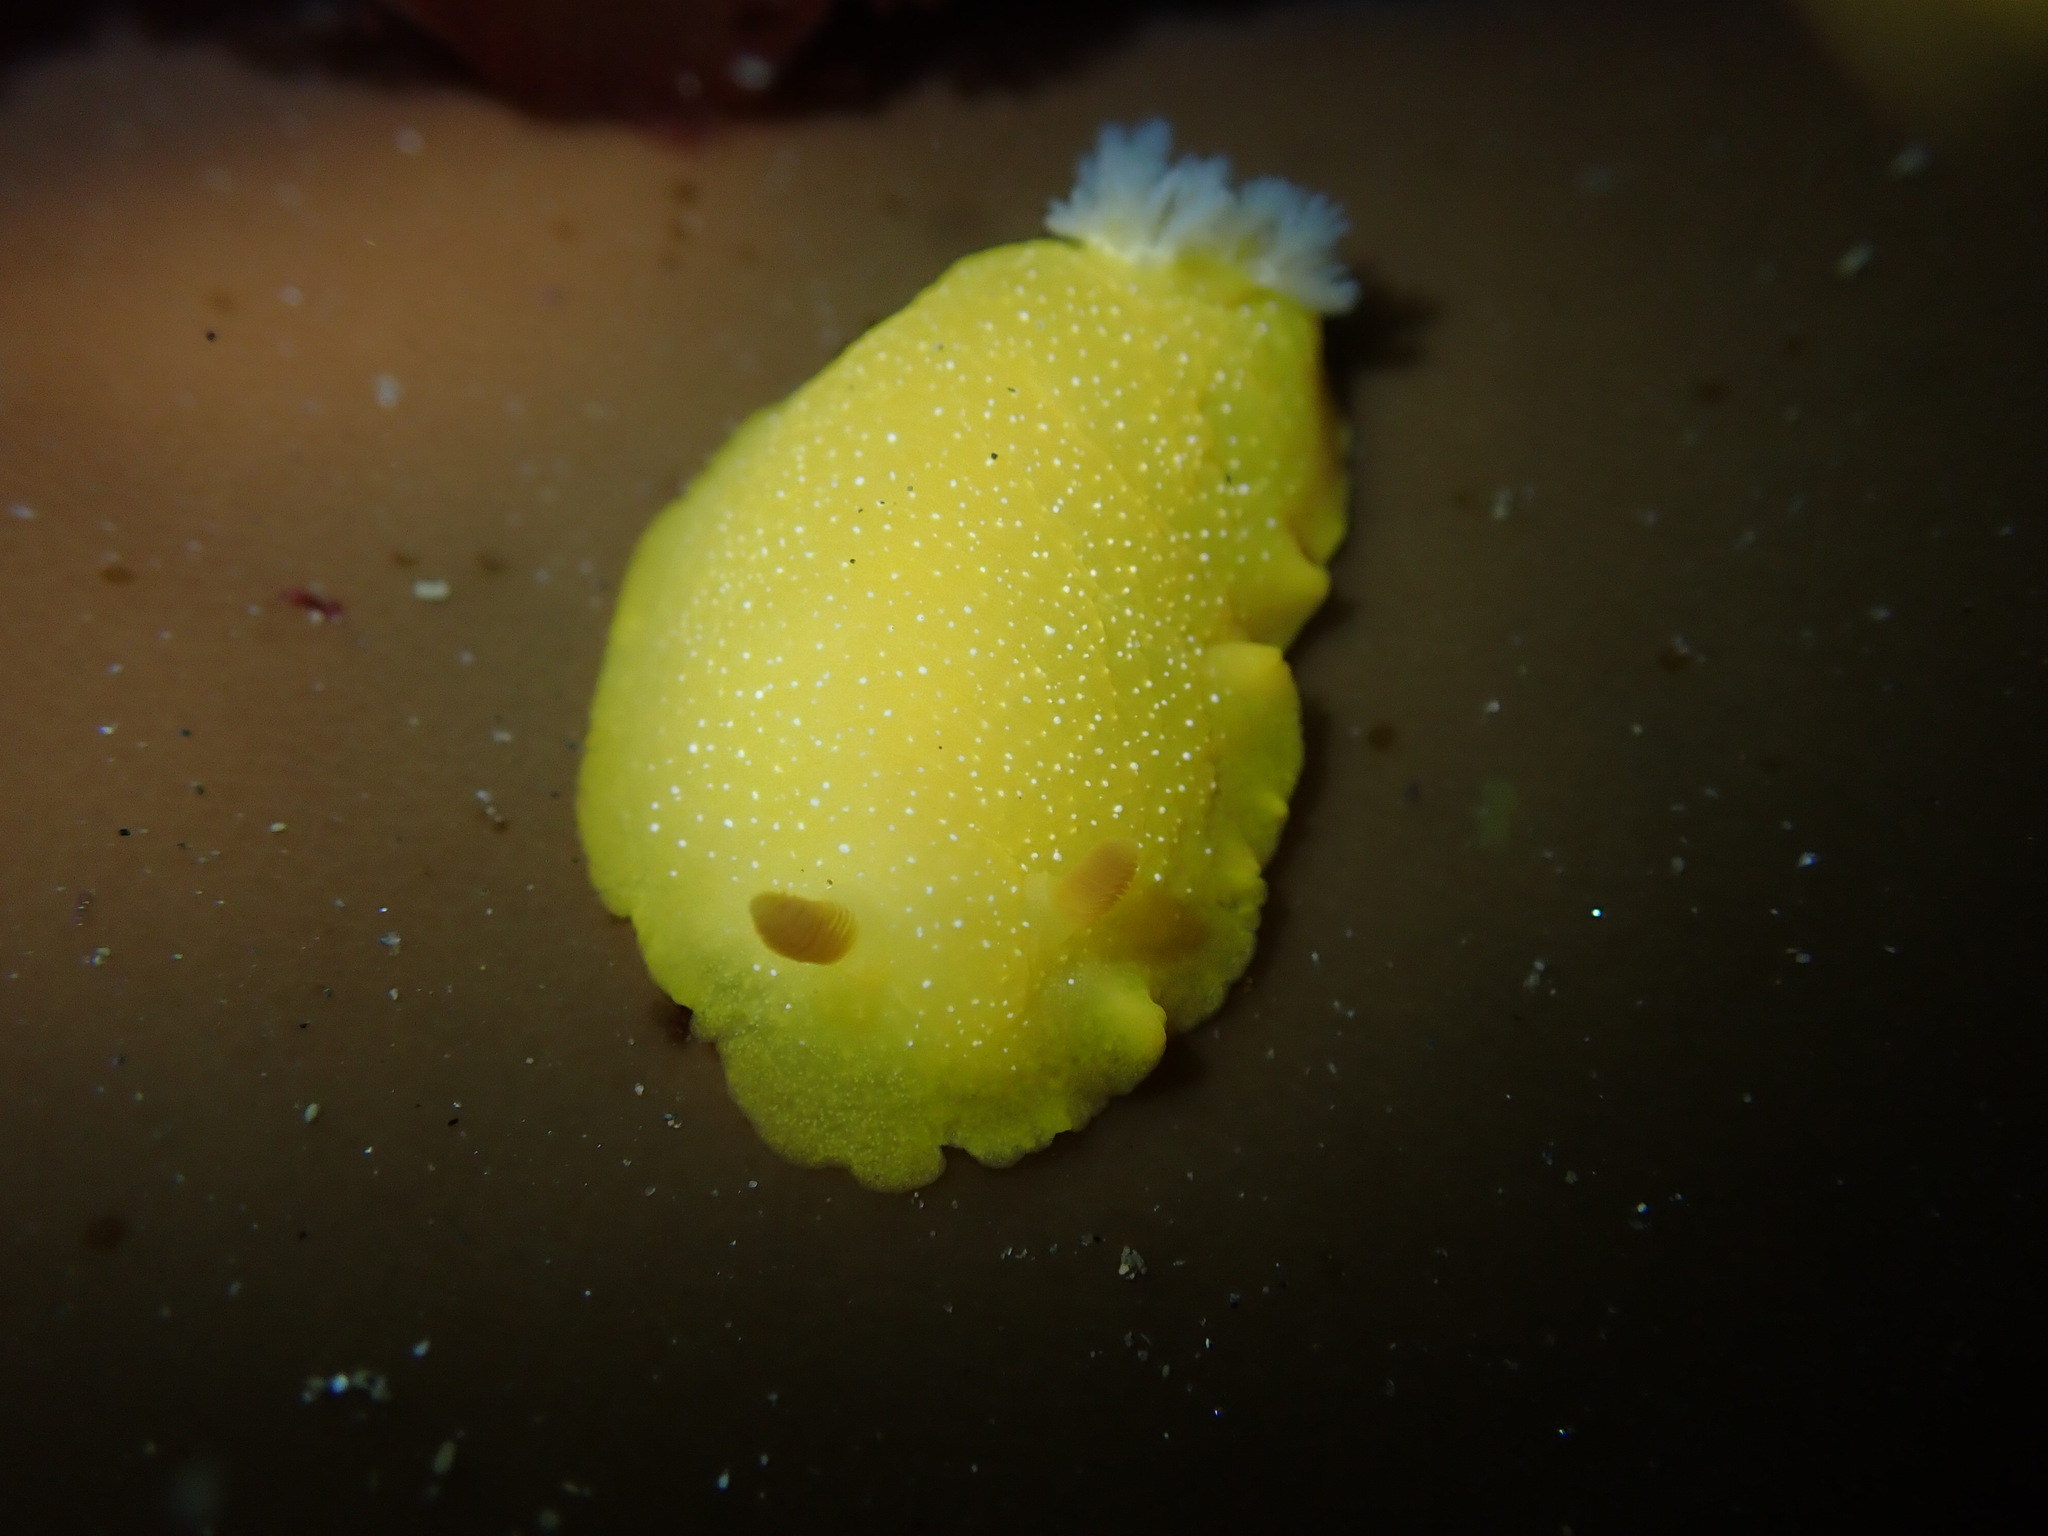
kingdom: Animalia
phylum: Mollusca
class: Gastropoda
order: Nudibranchia
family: Dendrodorididae
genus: Doriopsilla
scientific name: Doriopsilla fulva
